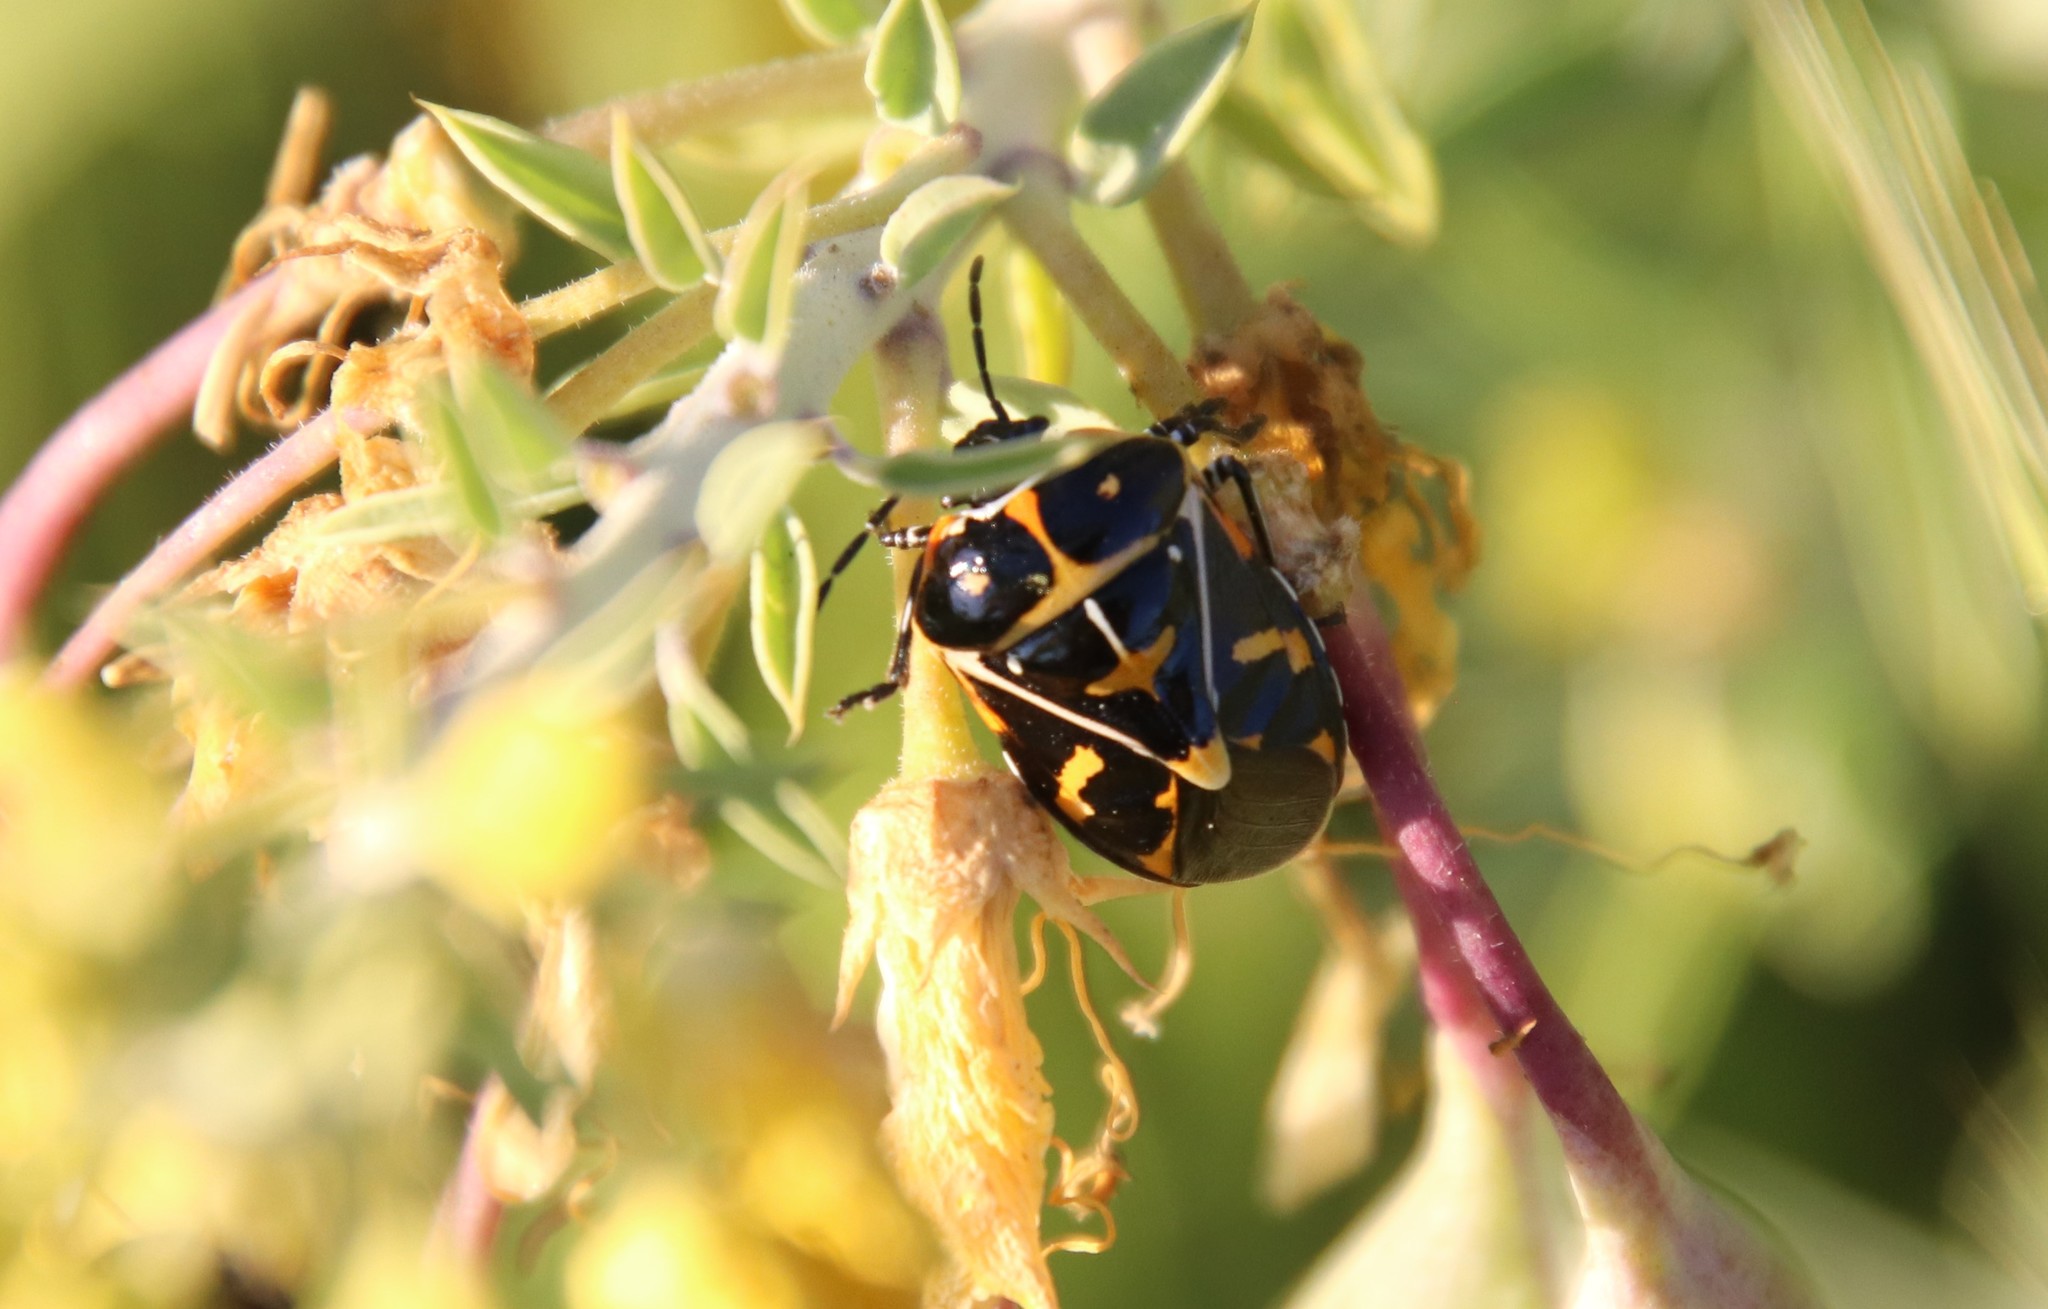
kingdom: Animalia
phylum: Arthropoda
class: Insecta
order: Hemiptera
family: Pentatomidae
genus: Murgantia
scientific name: Murgantia histrionica
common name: Harlequin bug
